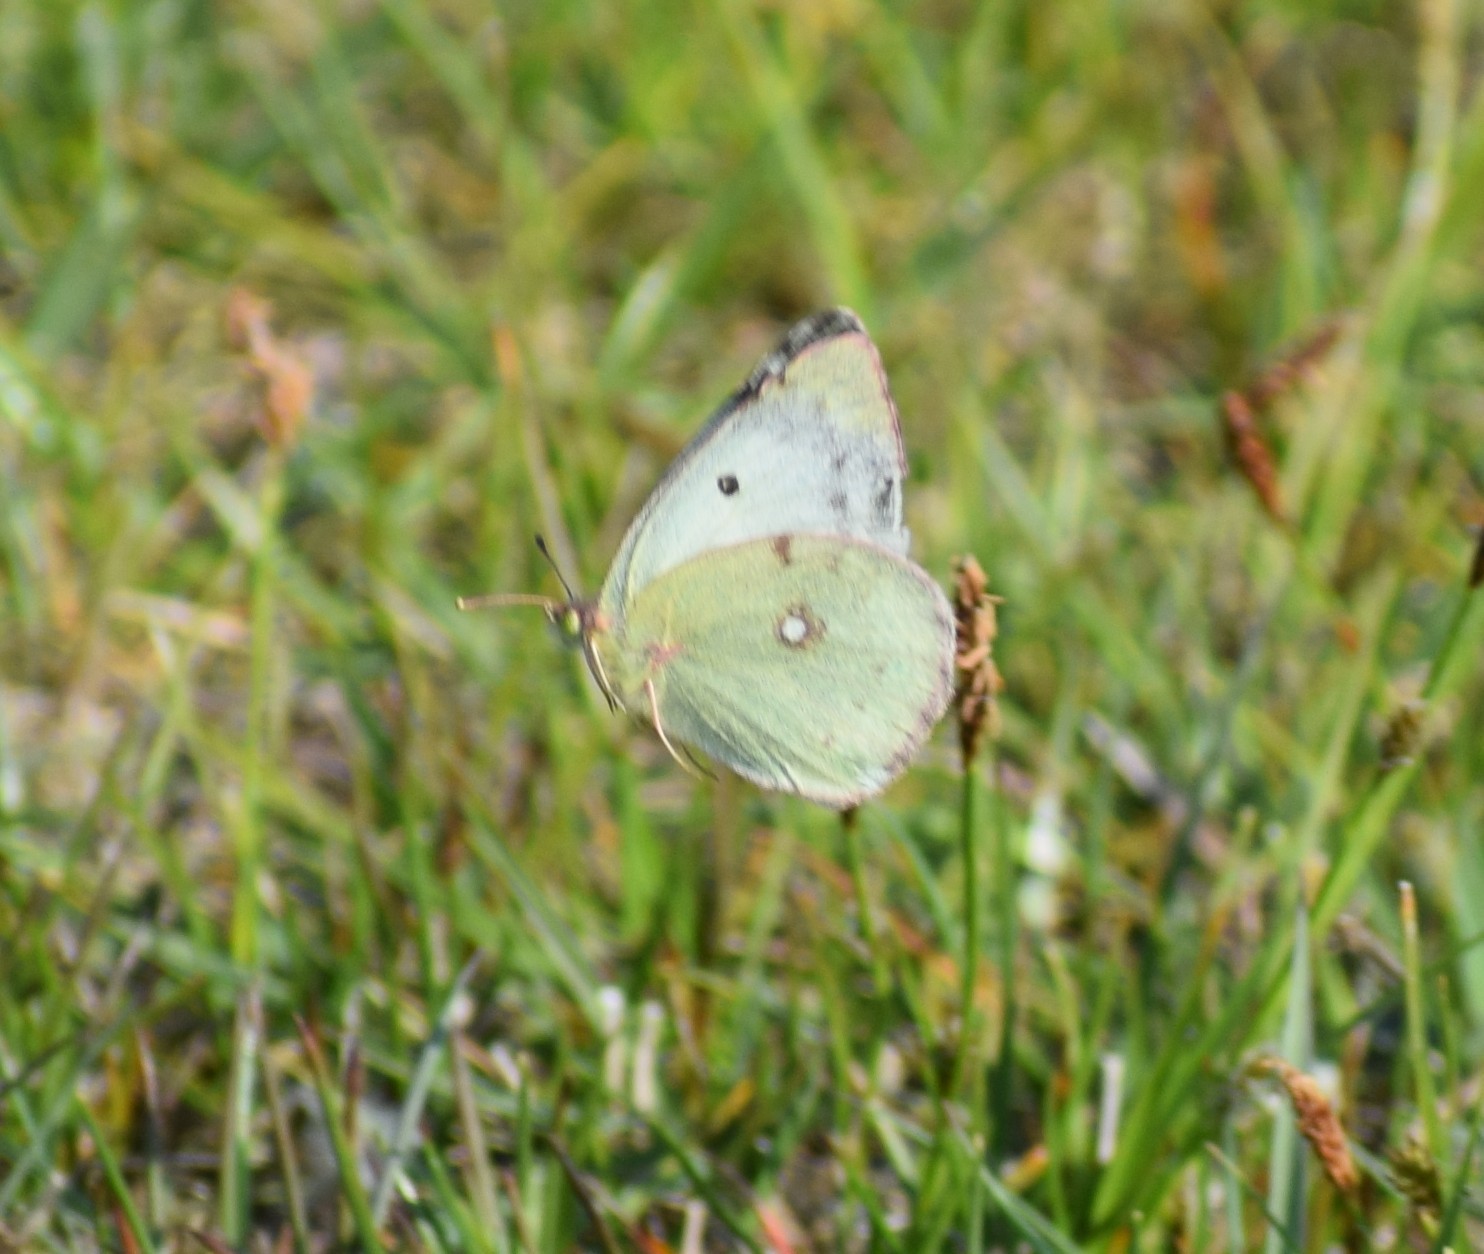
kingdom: Animalia
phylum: Arthropoda
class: Insecta
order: Lepidoptera
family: Pieridae
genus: Colias
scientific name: Colias
